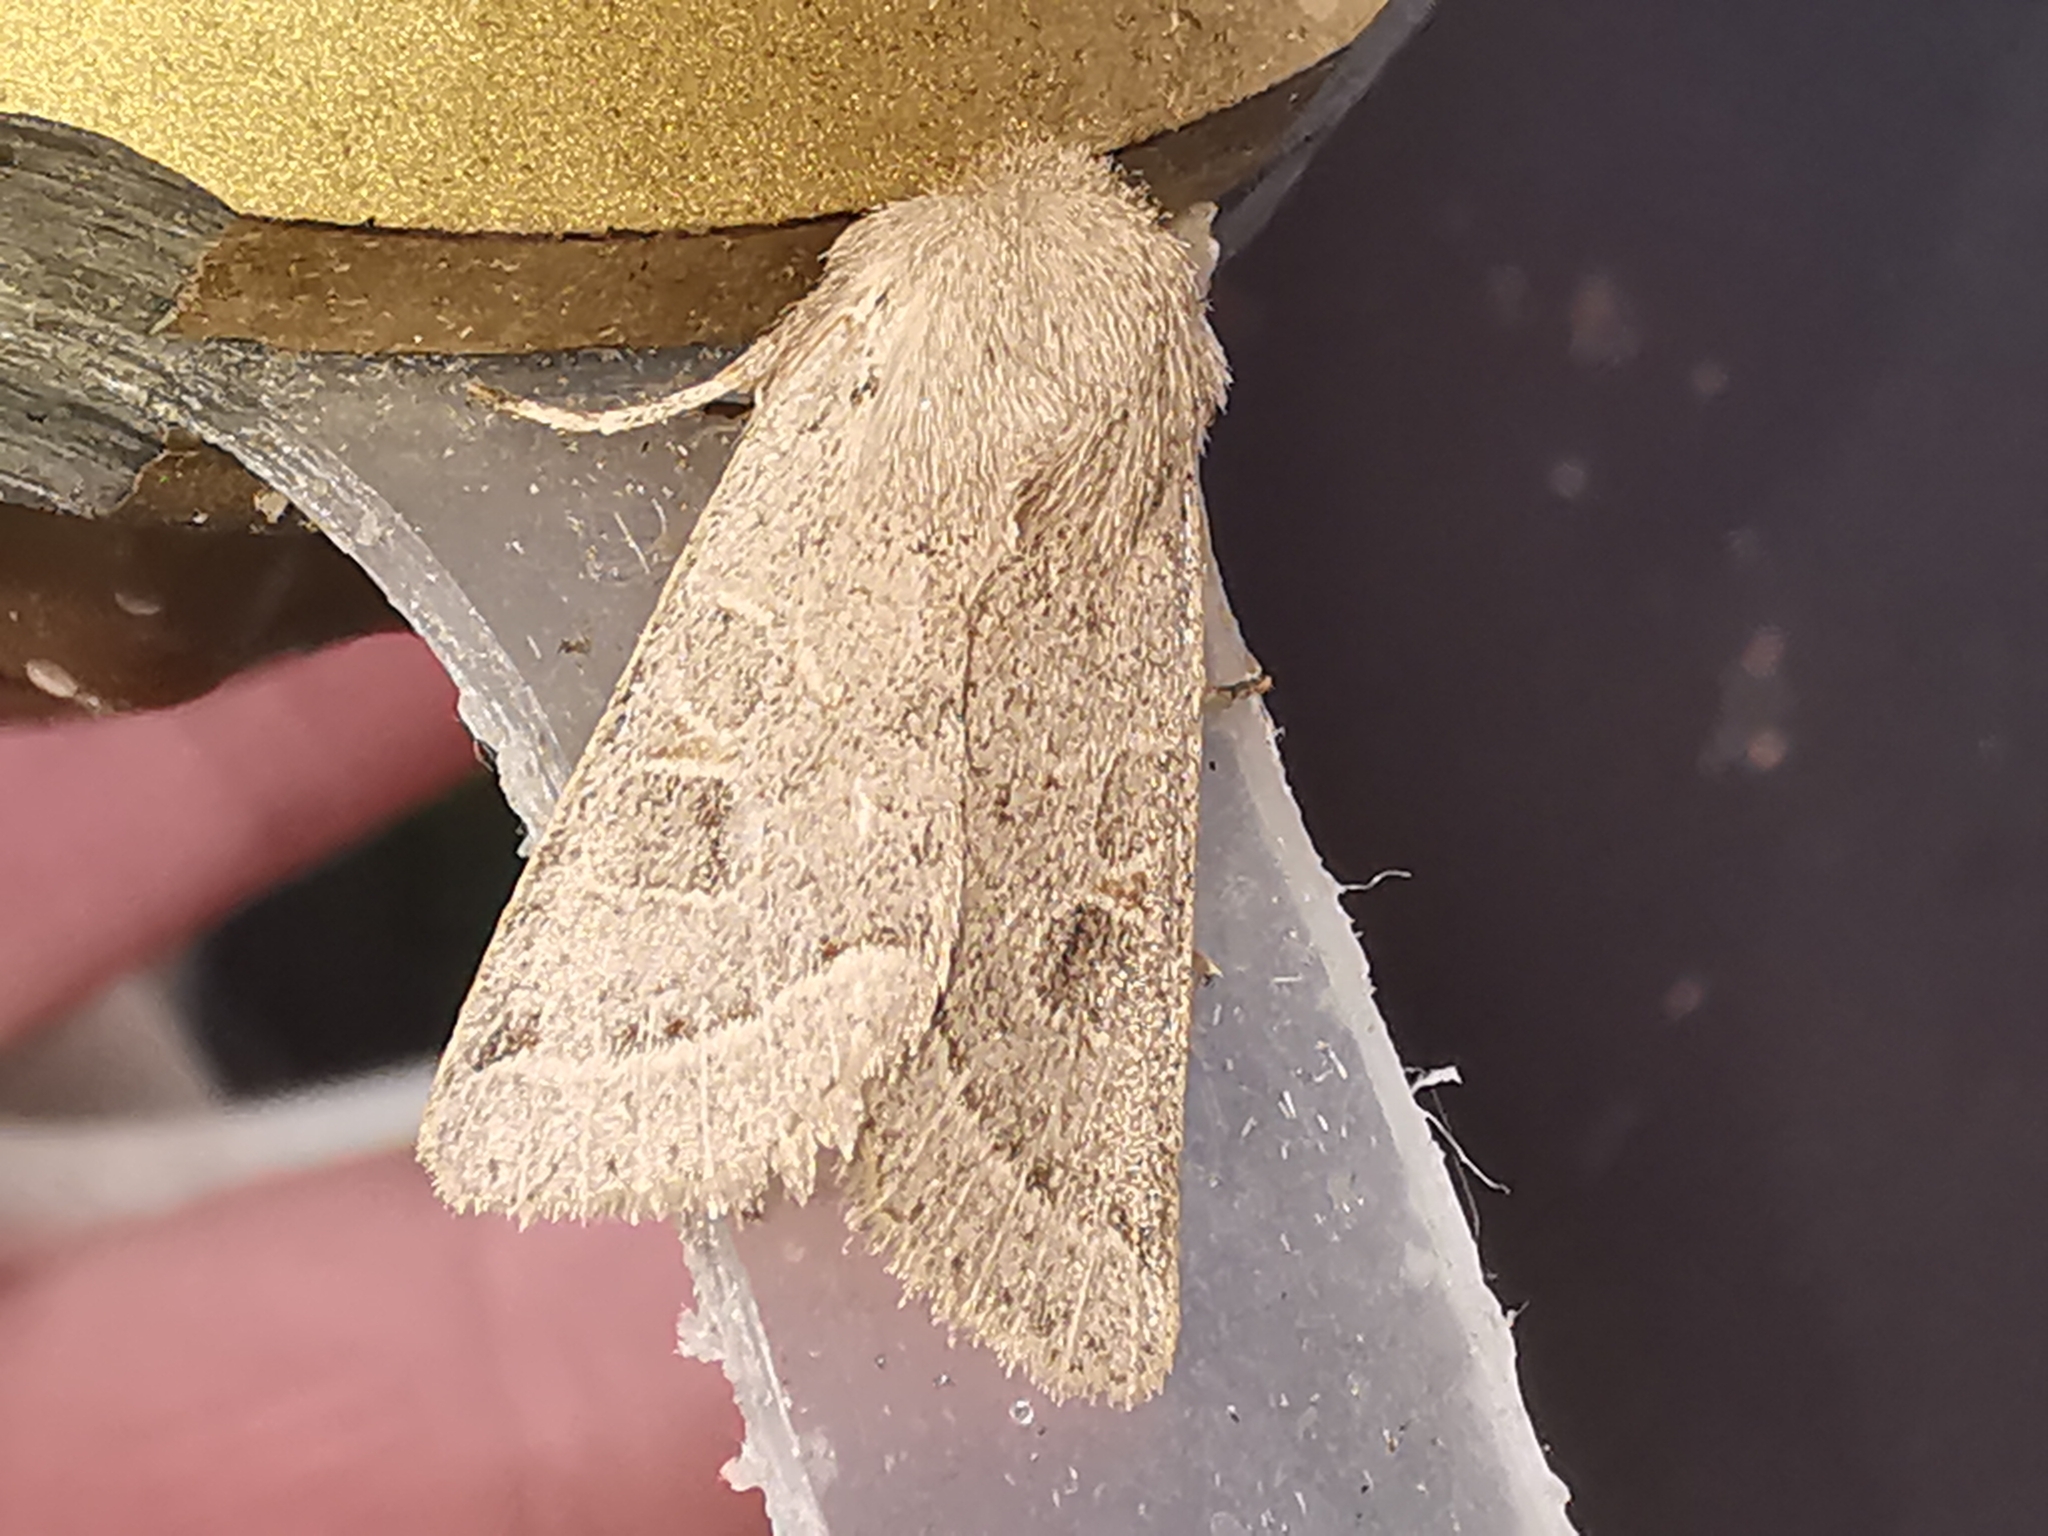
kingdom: Animalia
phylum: Arthropoda
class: Insecta
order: Lepidoptera
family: Noctuidae
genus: Orthosia
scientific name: Orthosia cerasi
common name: Common quaker
